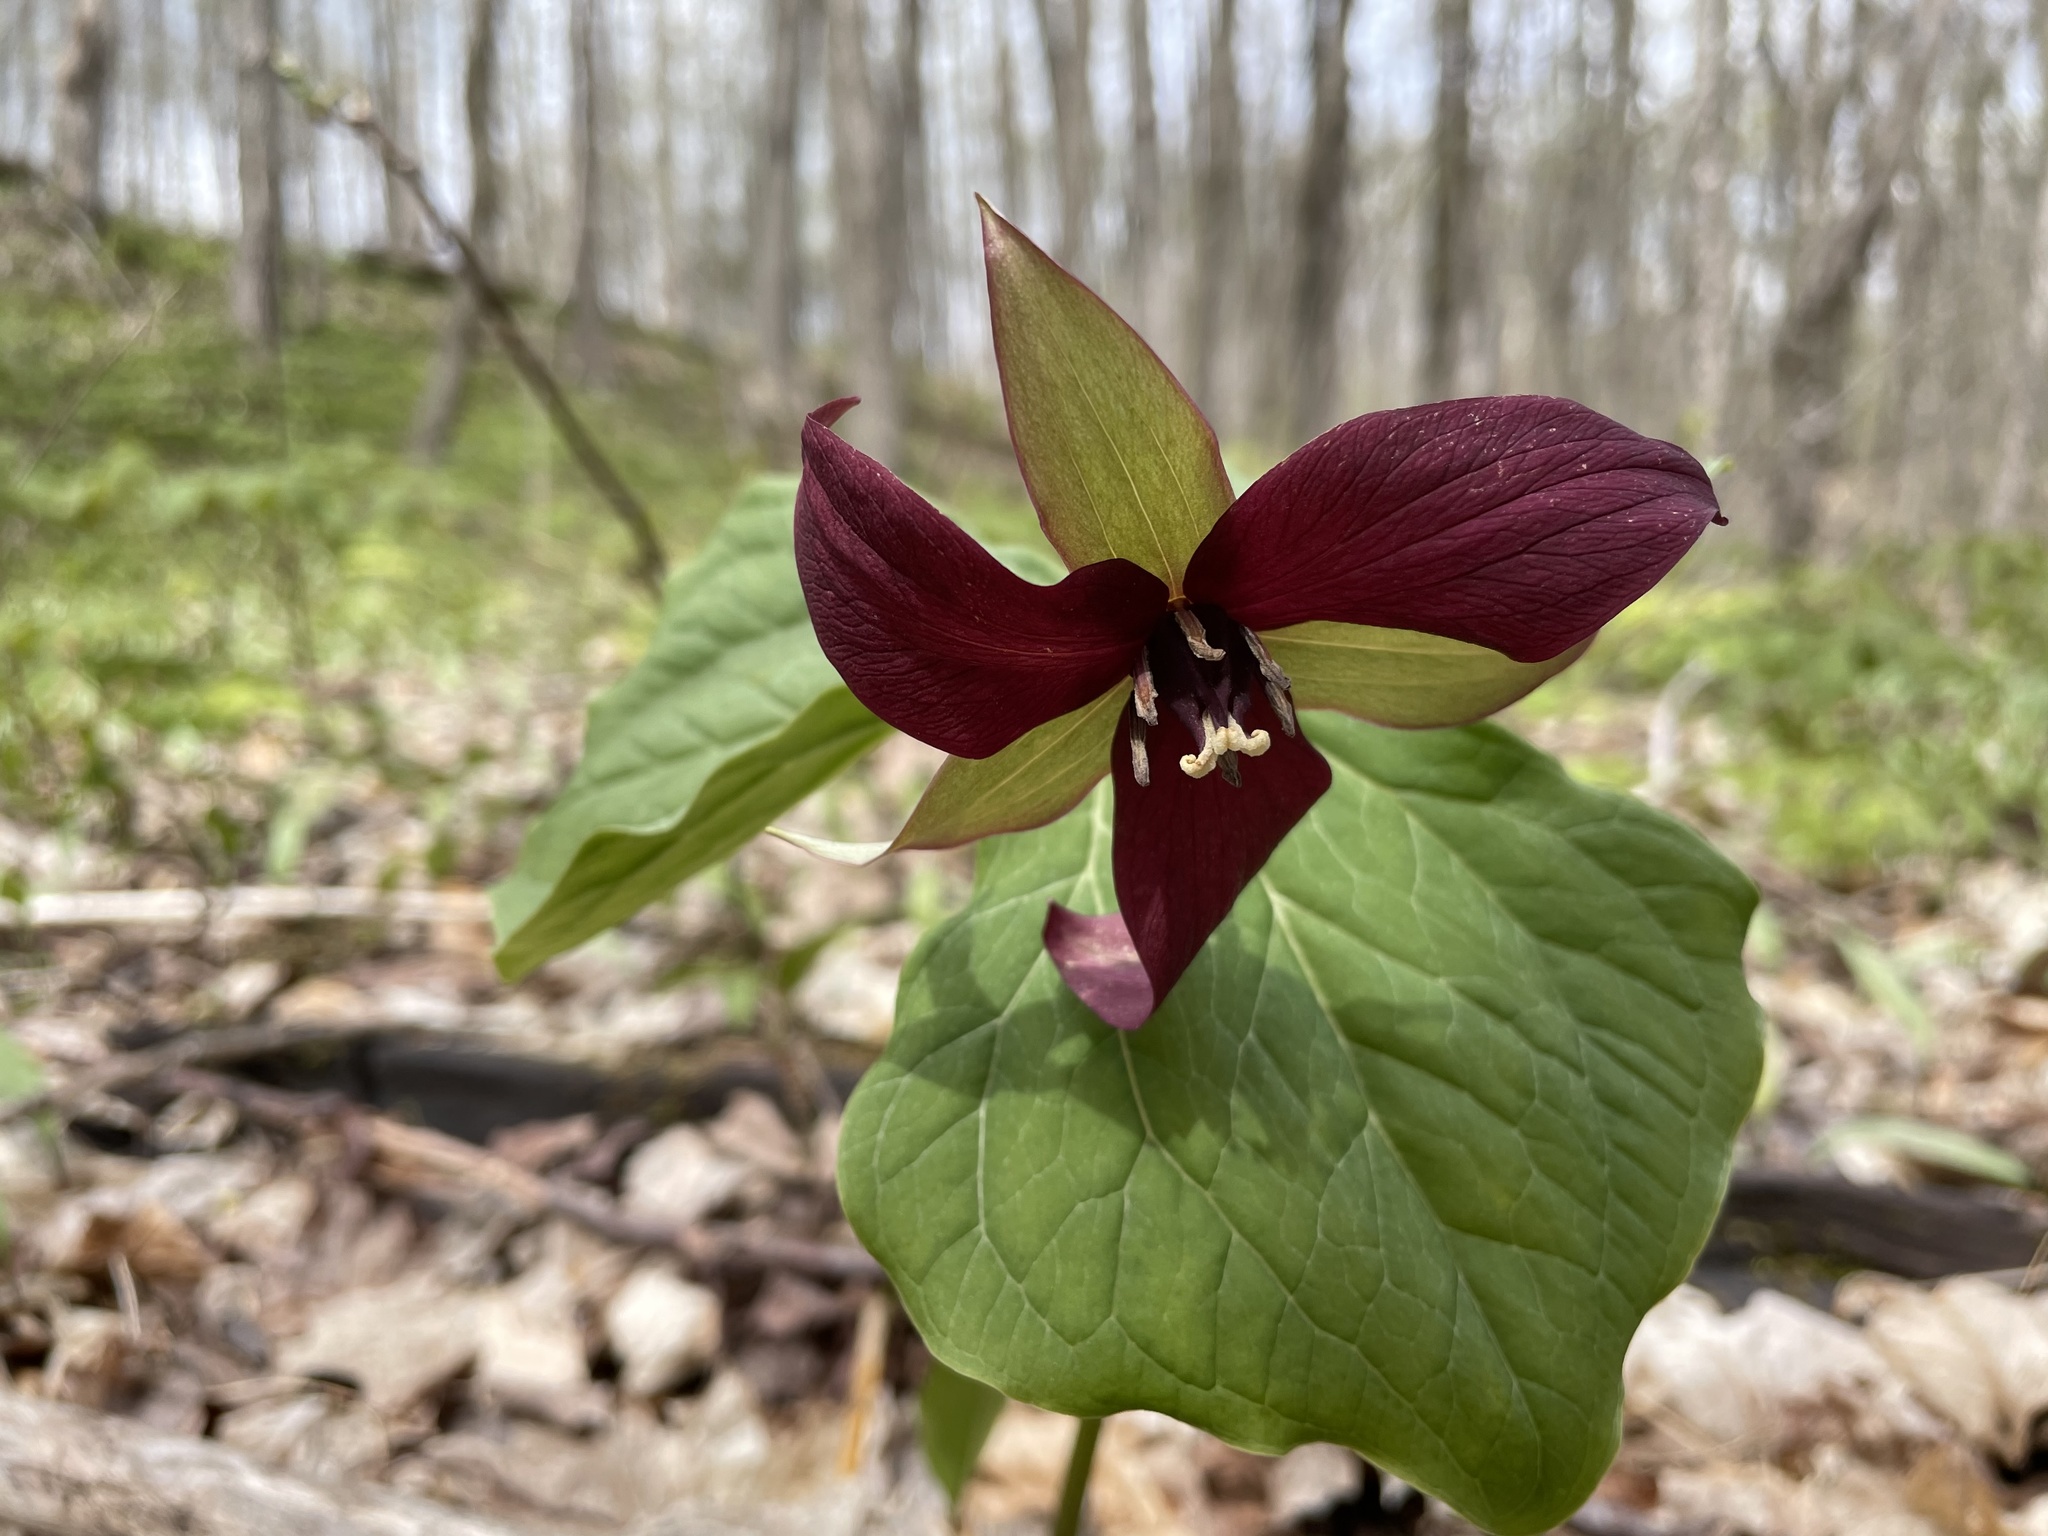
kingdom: Plantae
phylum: Tracheophyta
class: Liliopsida
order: Liliales
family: Melanthiaceae
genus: Trillium
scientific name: Trillium erectum
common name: Purple trillium
